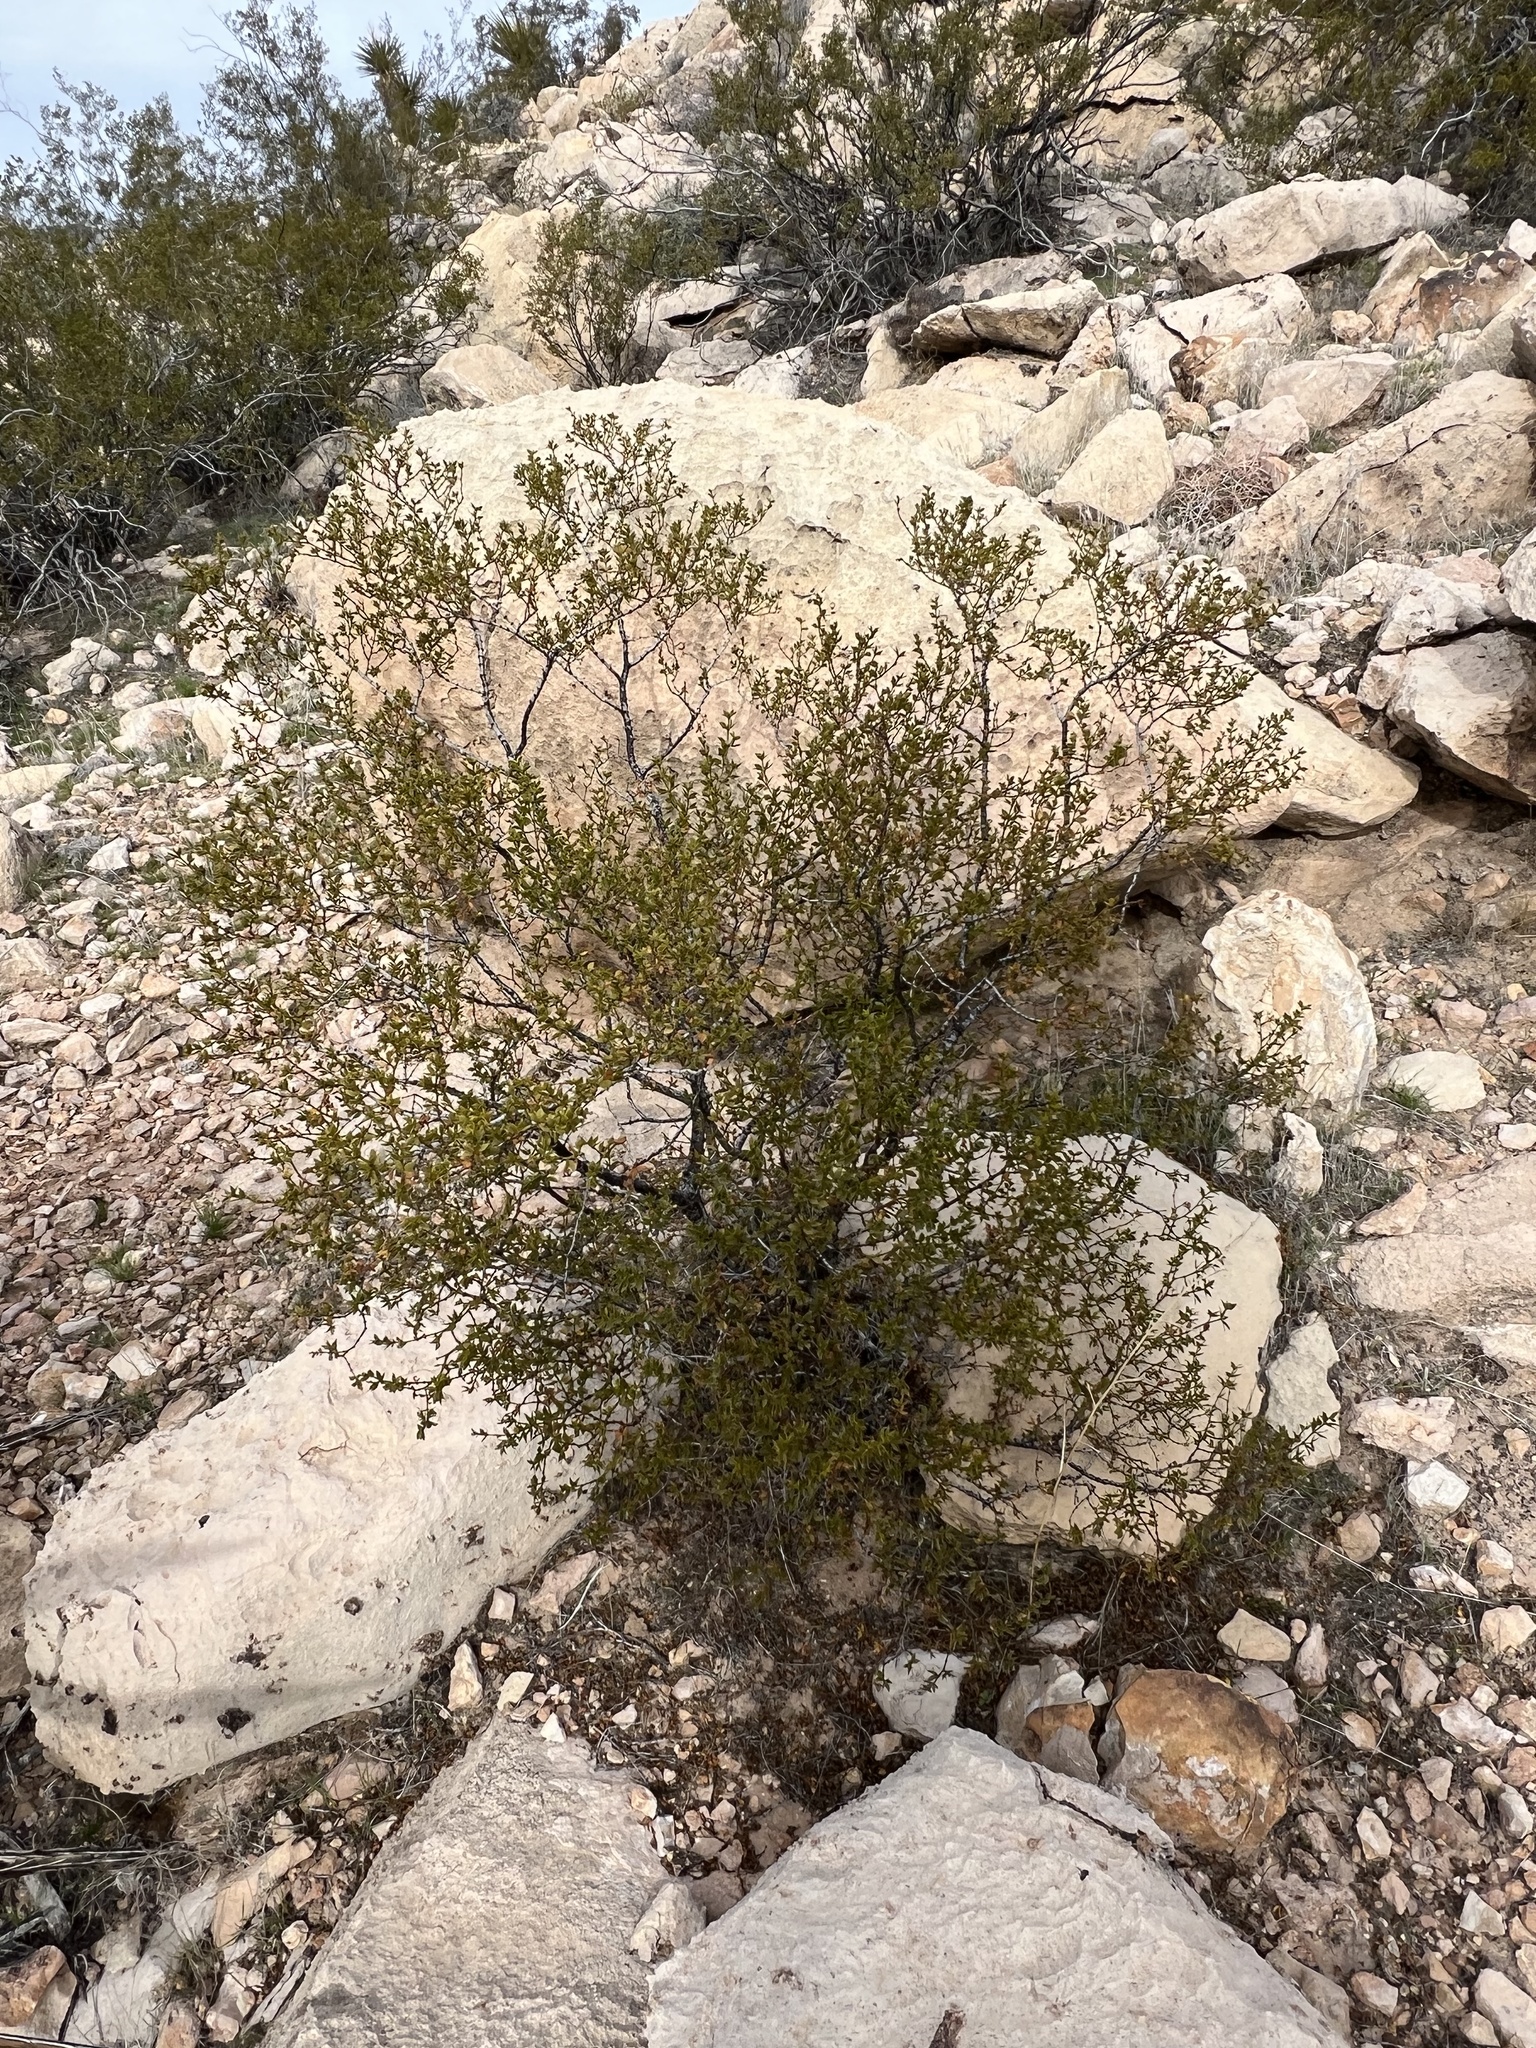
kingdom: Plantae
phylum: Tracheophyta
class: Magnoliopsida
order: Zygophyllales
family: Zygophyllaceae
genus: Larrea
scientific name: Larrea tridentata
